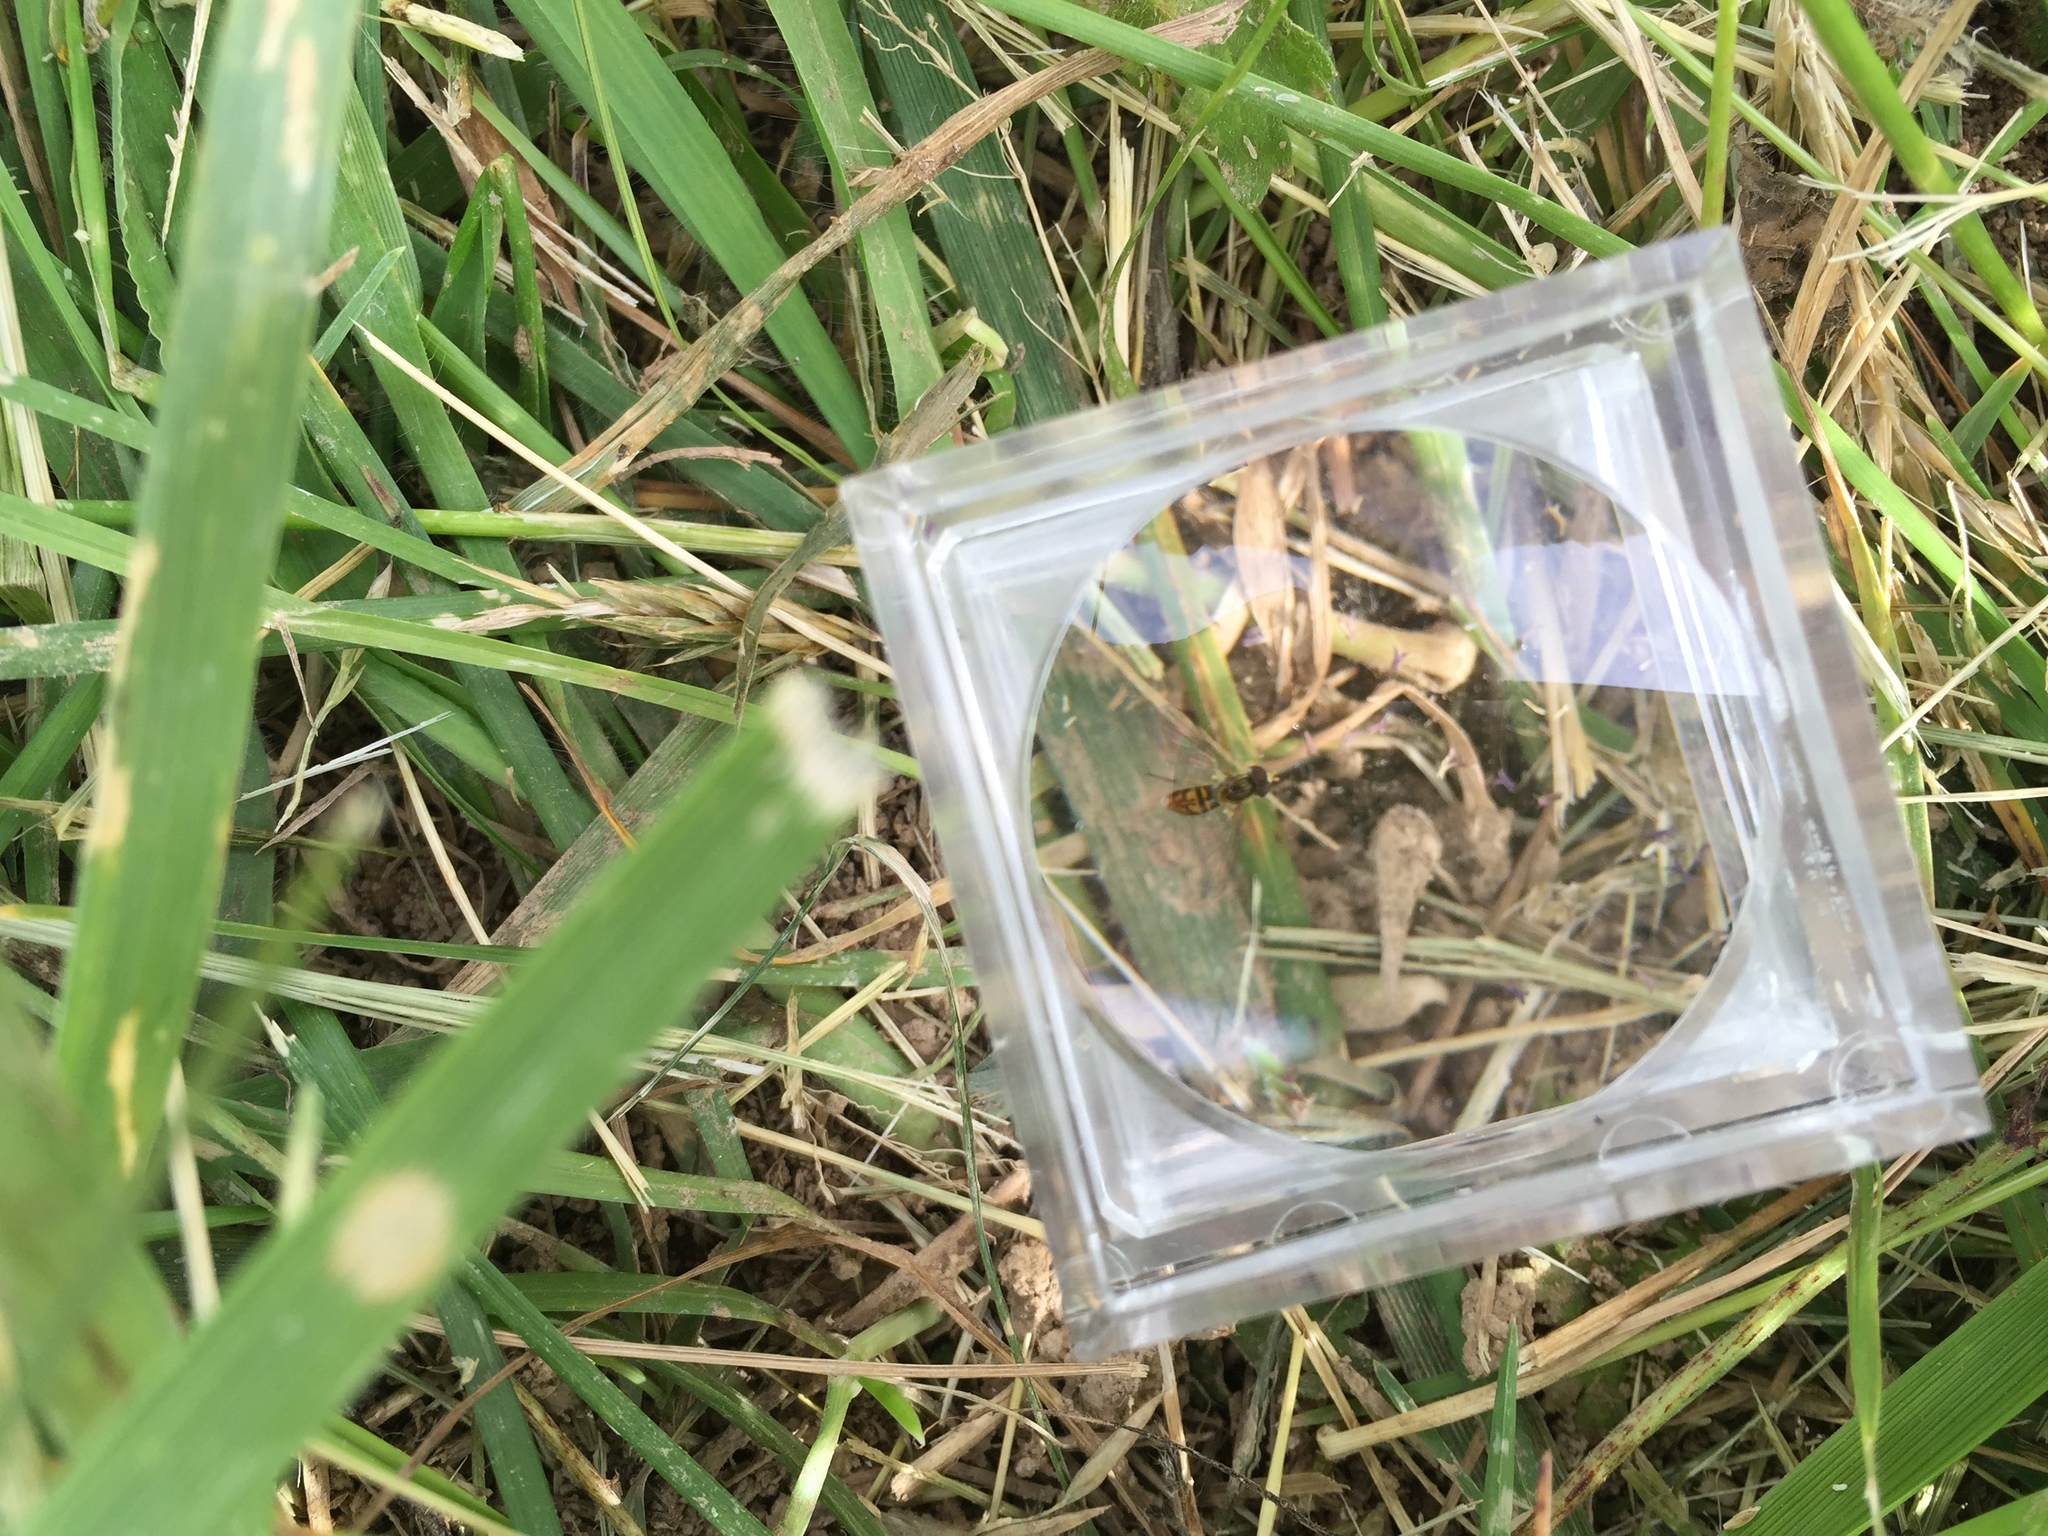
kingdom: Animalia
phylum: Arthropoda
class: Insecta
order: Diptera
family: Syrphidae
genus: Toxomerus
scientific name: Toxomerus marginatus
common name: Syrphid fly
